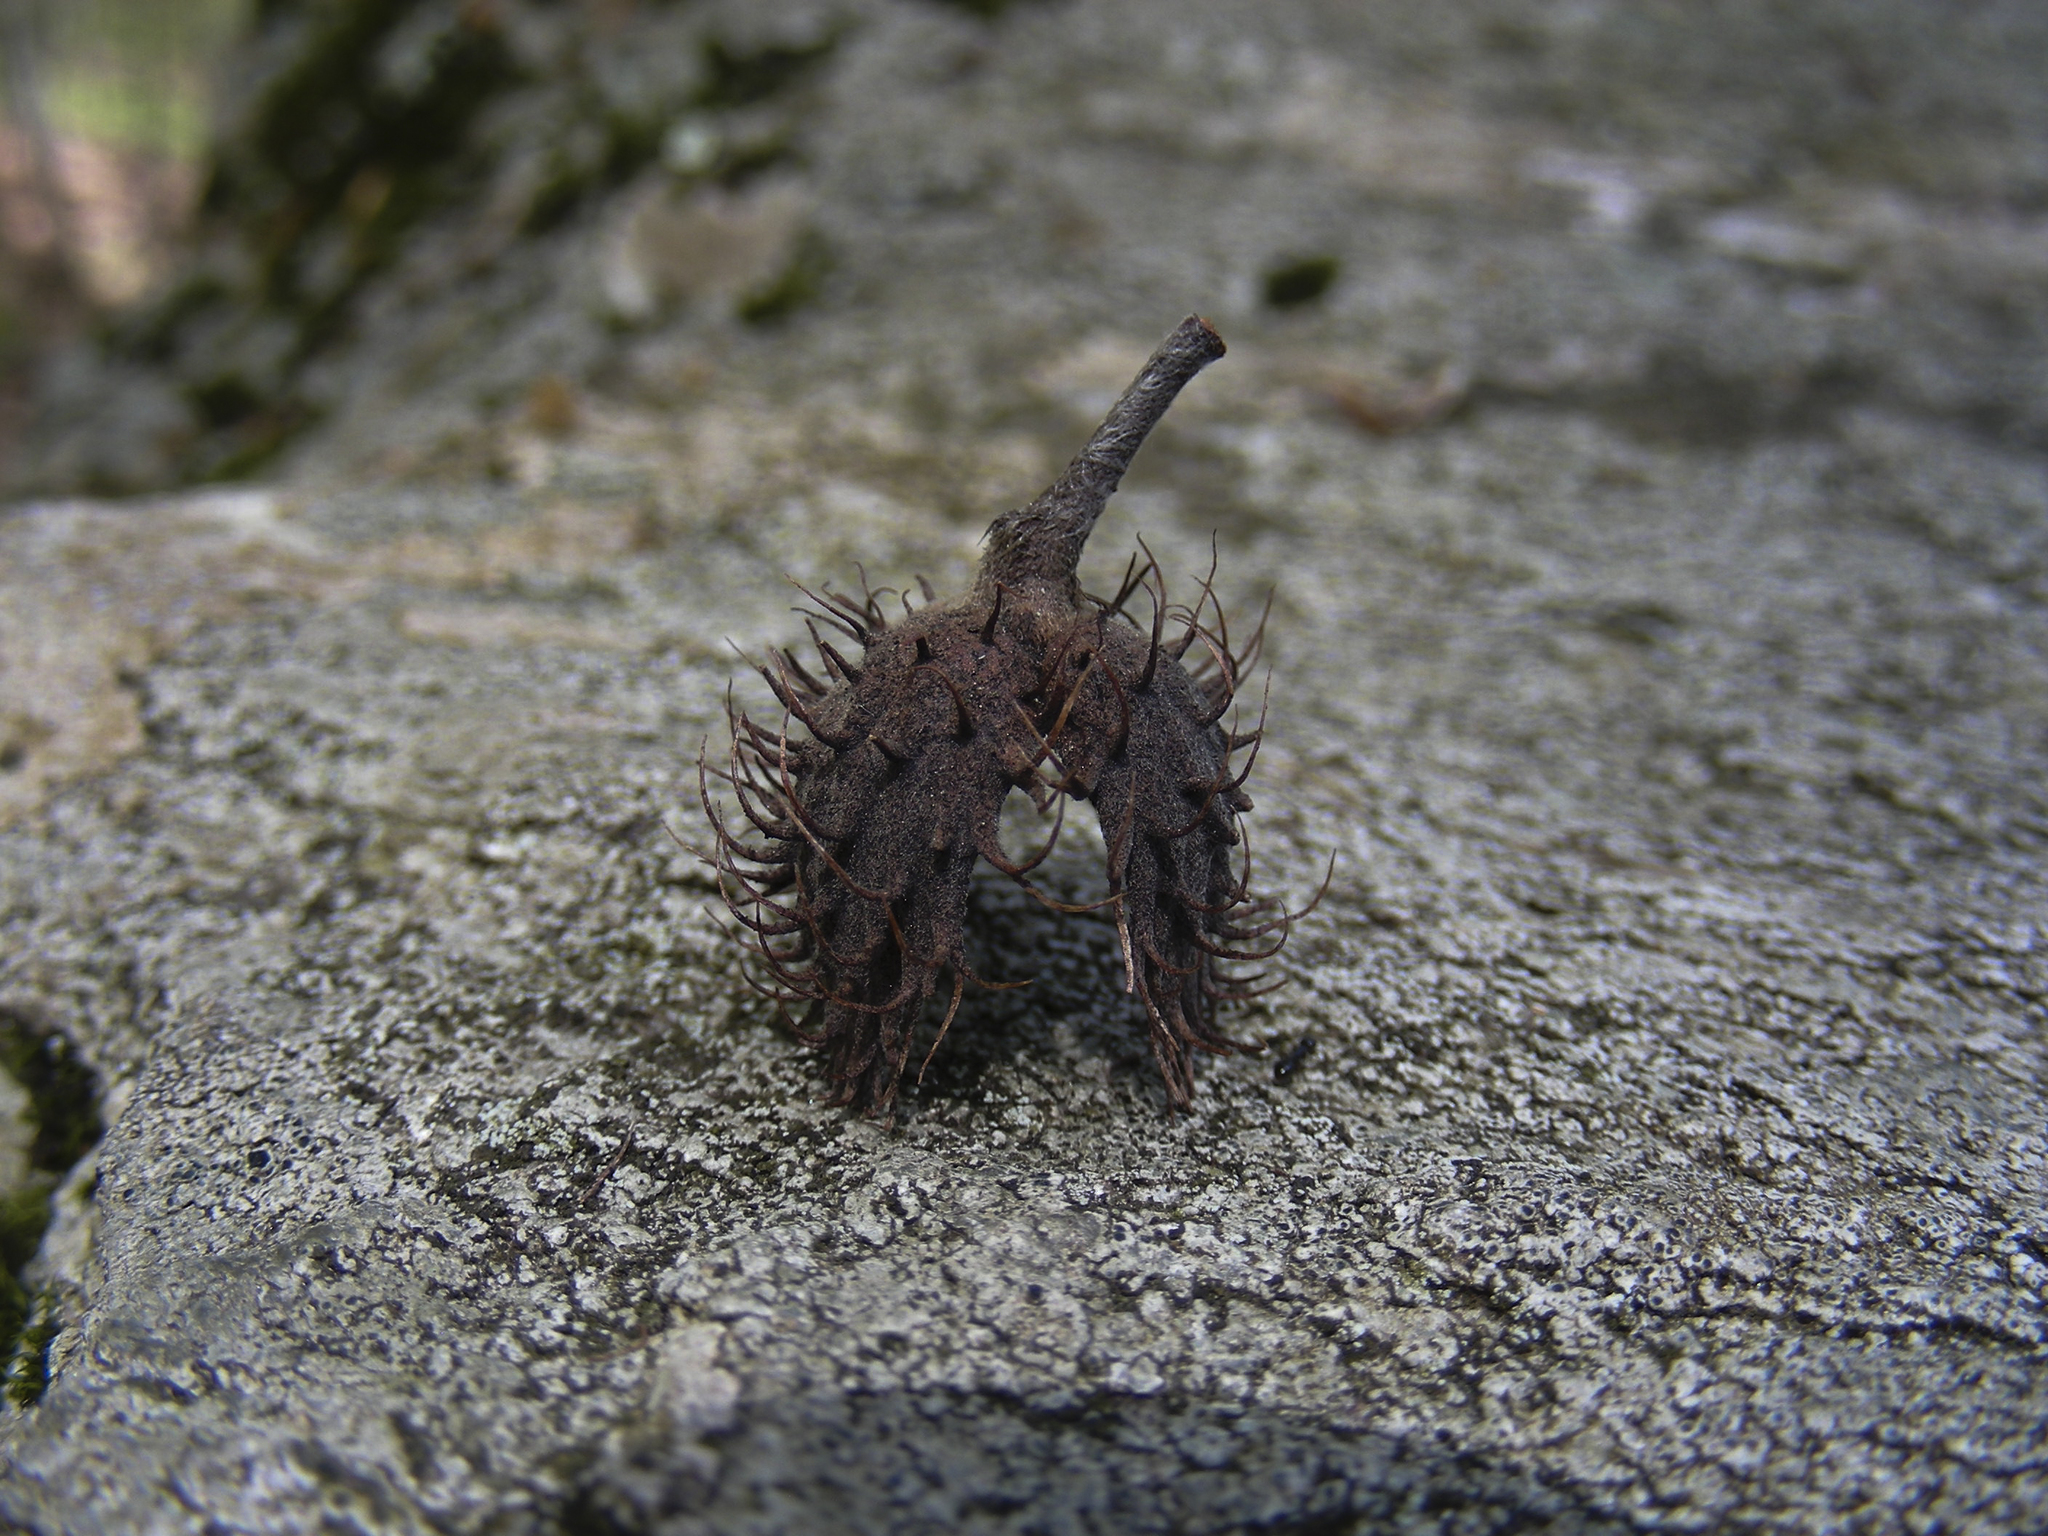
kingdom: Plantae
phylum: Tracheophyta
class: Magnoliopsida
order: Fagales
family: Fagaceae
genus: Fagus
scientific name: Fagus grandifolia
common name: American beech
